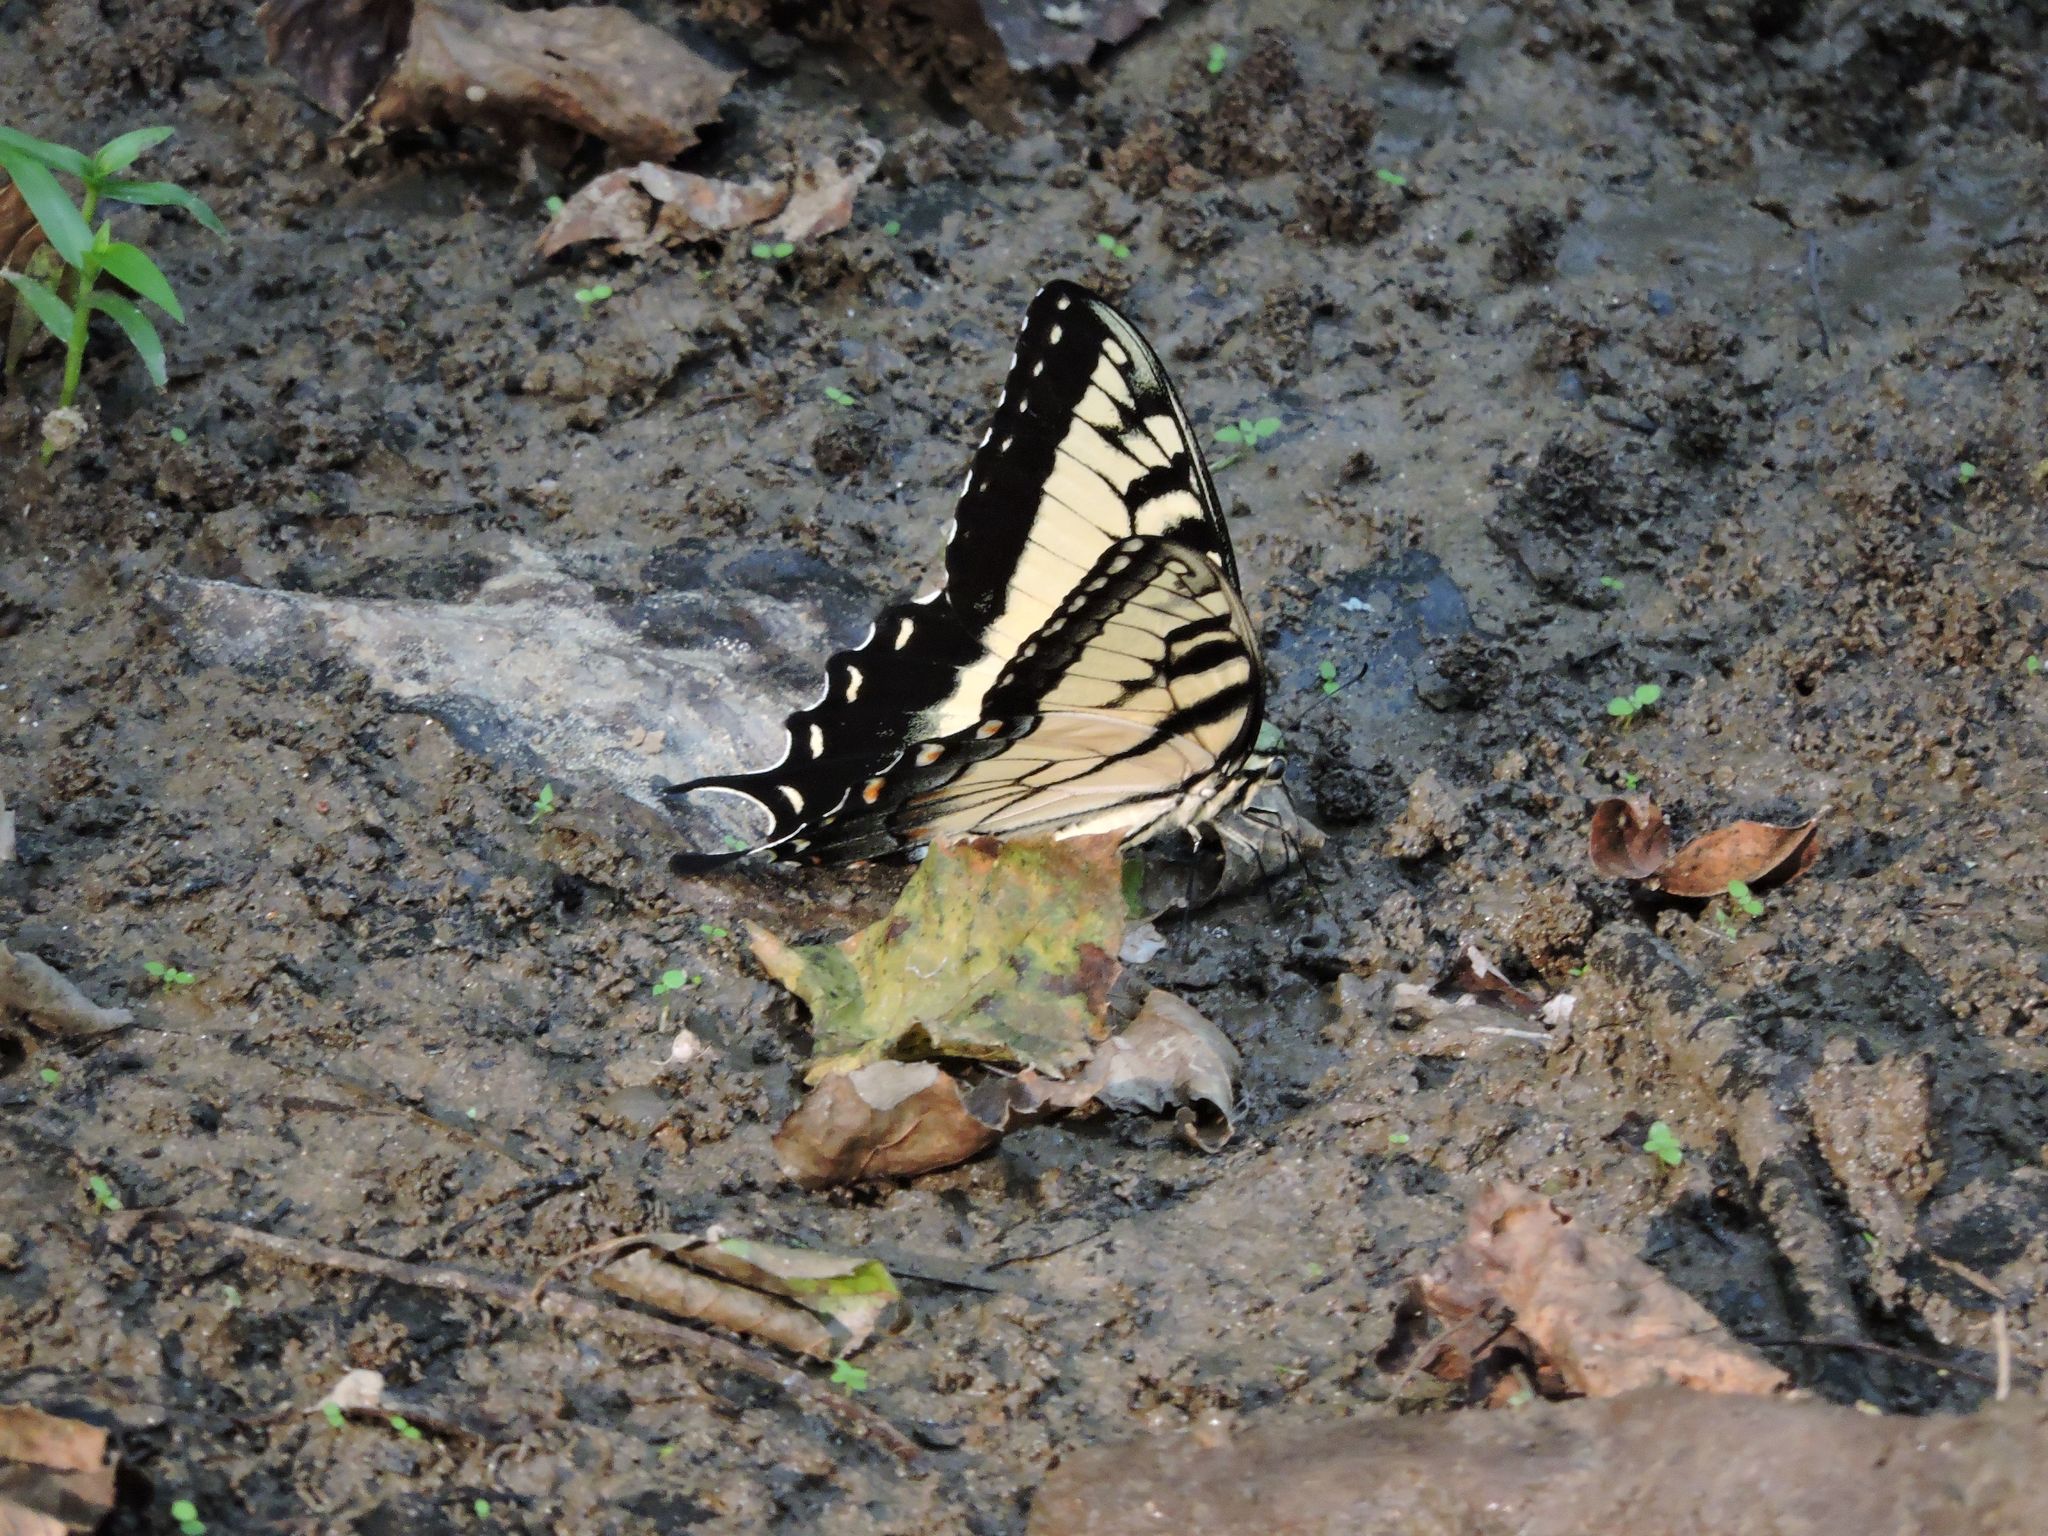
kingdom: Animalia
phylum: Arthropoda
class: Insecta
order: Lepidoptera
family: Papilionidae
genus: Papilio
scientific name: Papilio glaucus
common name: Tiger swallowtail
